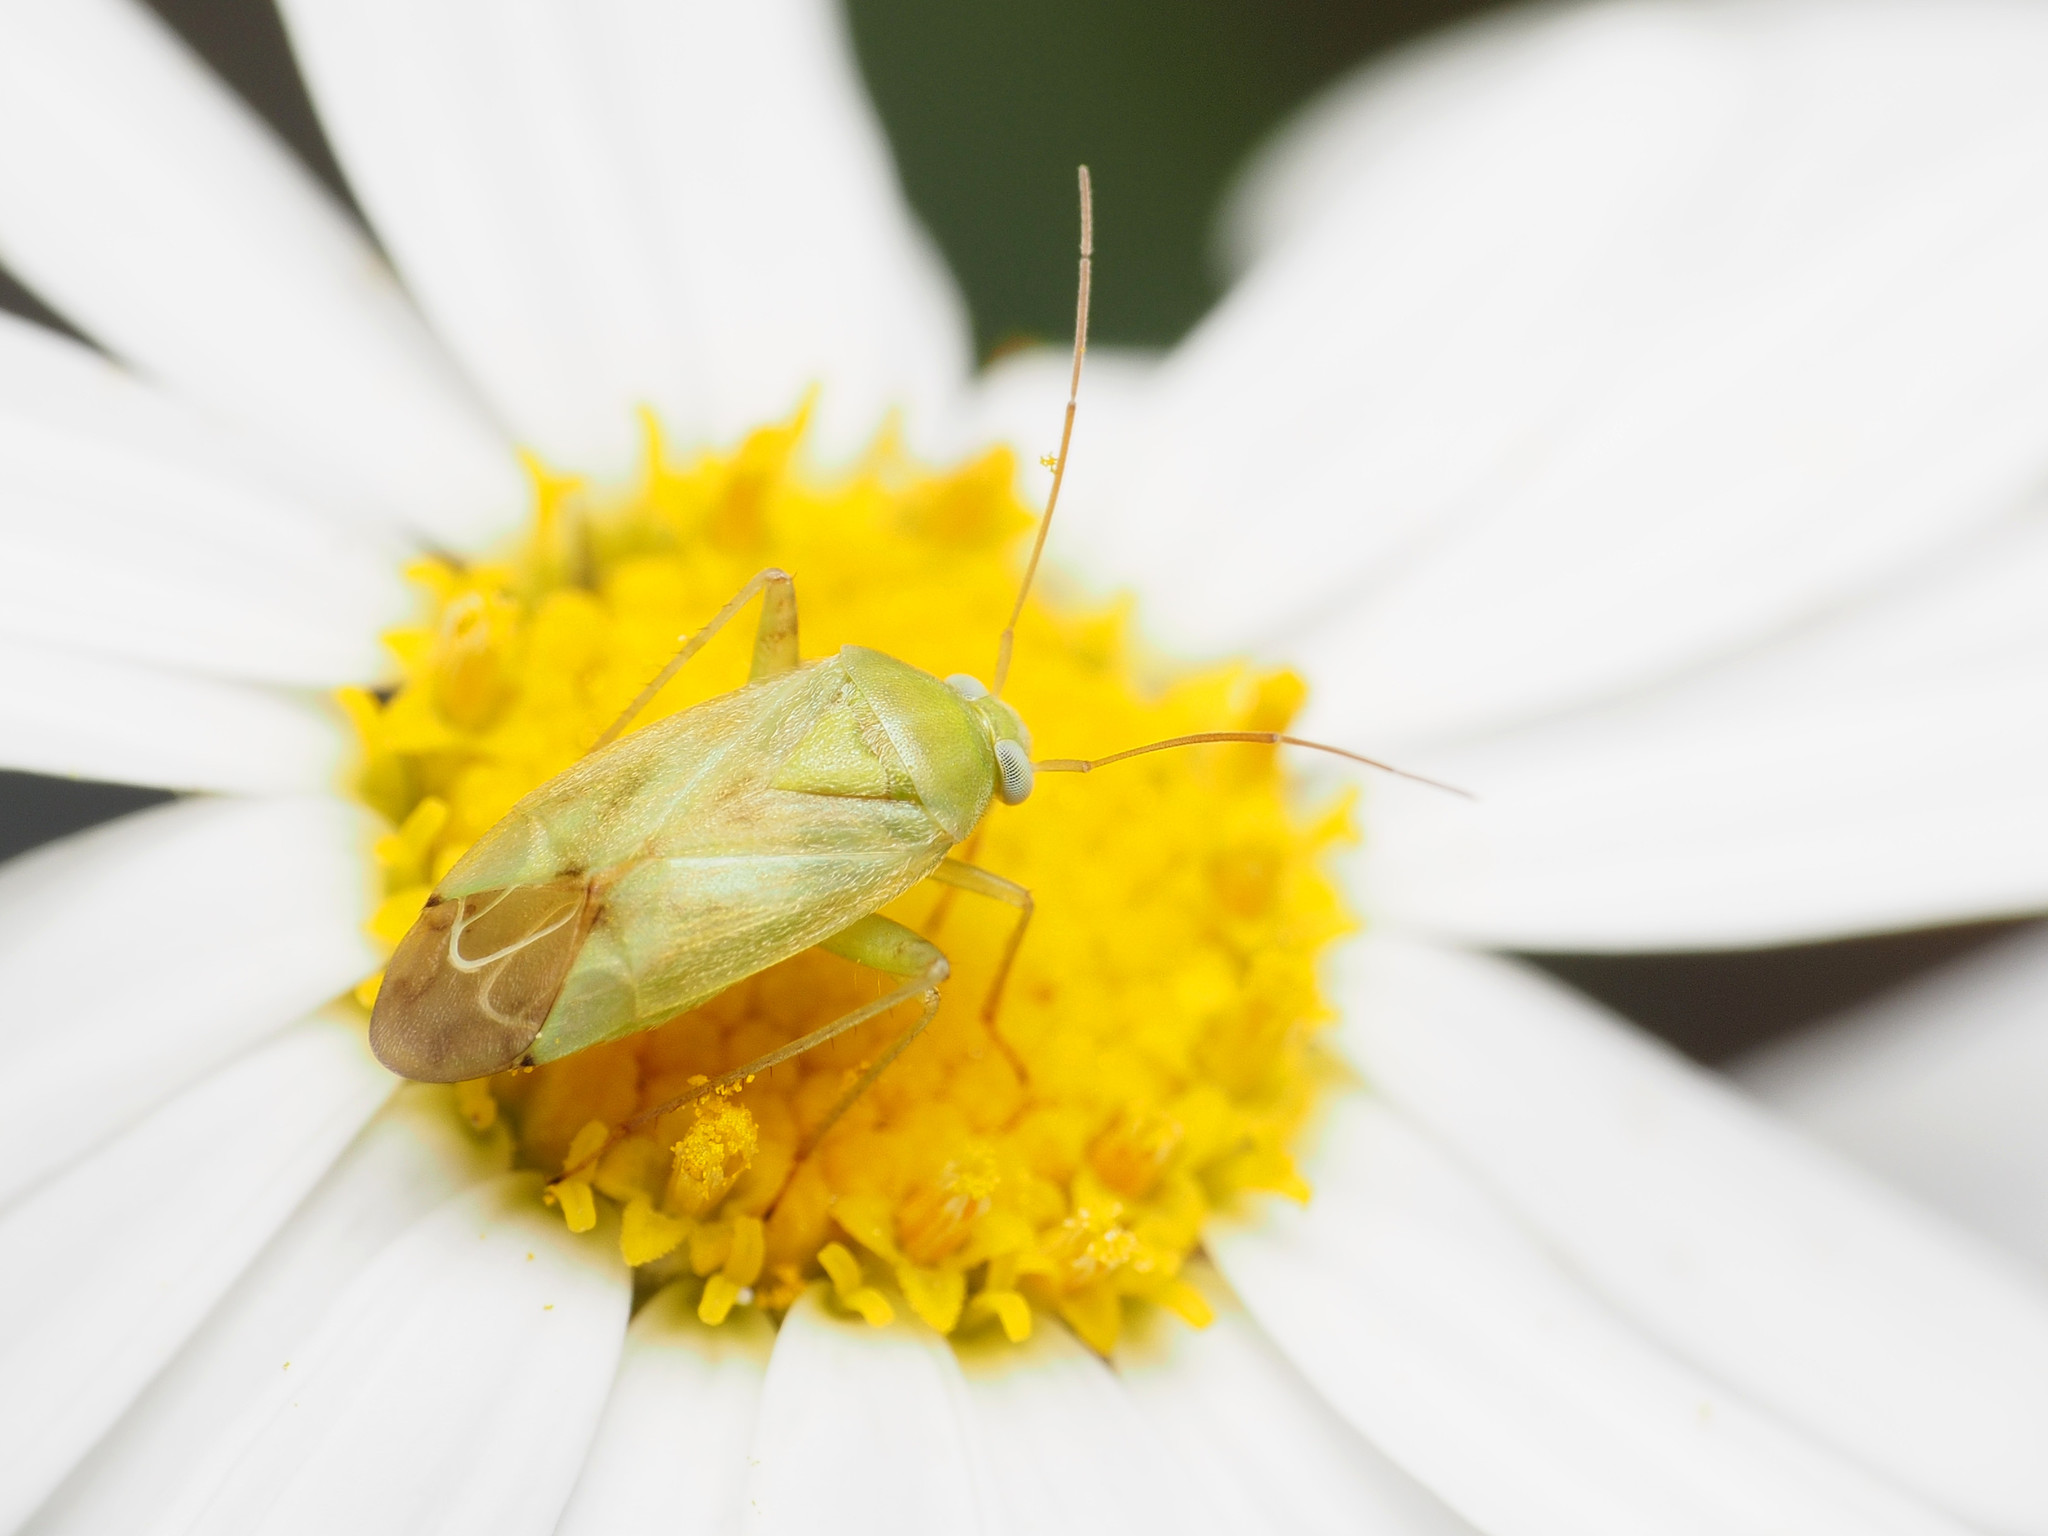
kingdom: Animalia
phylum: Arthropoda
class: Insecta
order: Hemiptera
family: Miridae
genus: Taylorilygus
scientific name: Taylorilygus apicalis
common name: Plant bug
